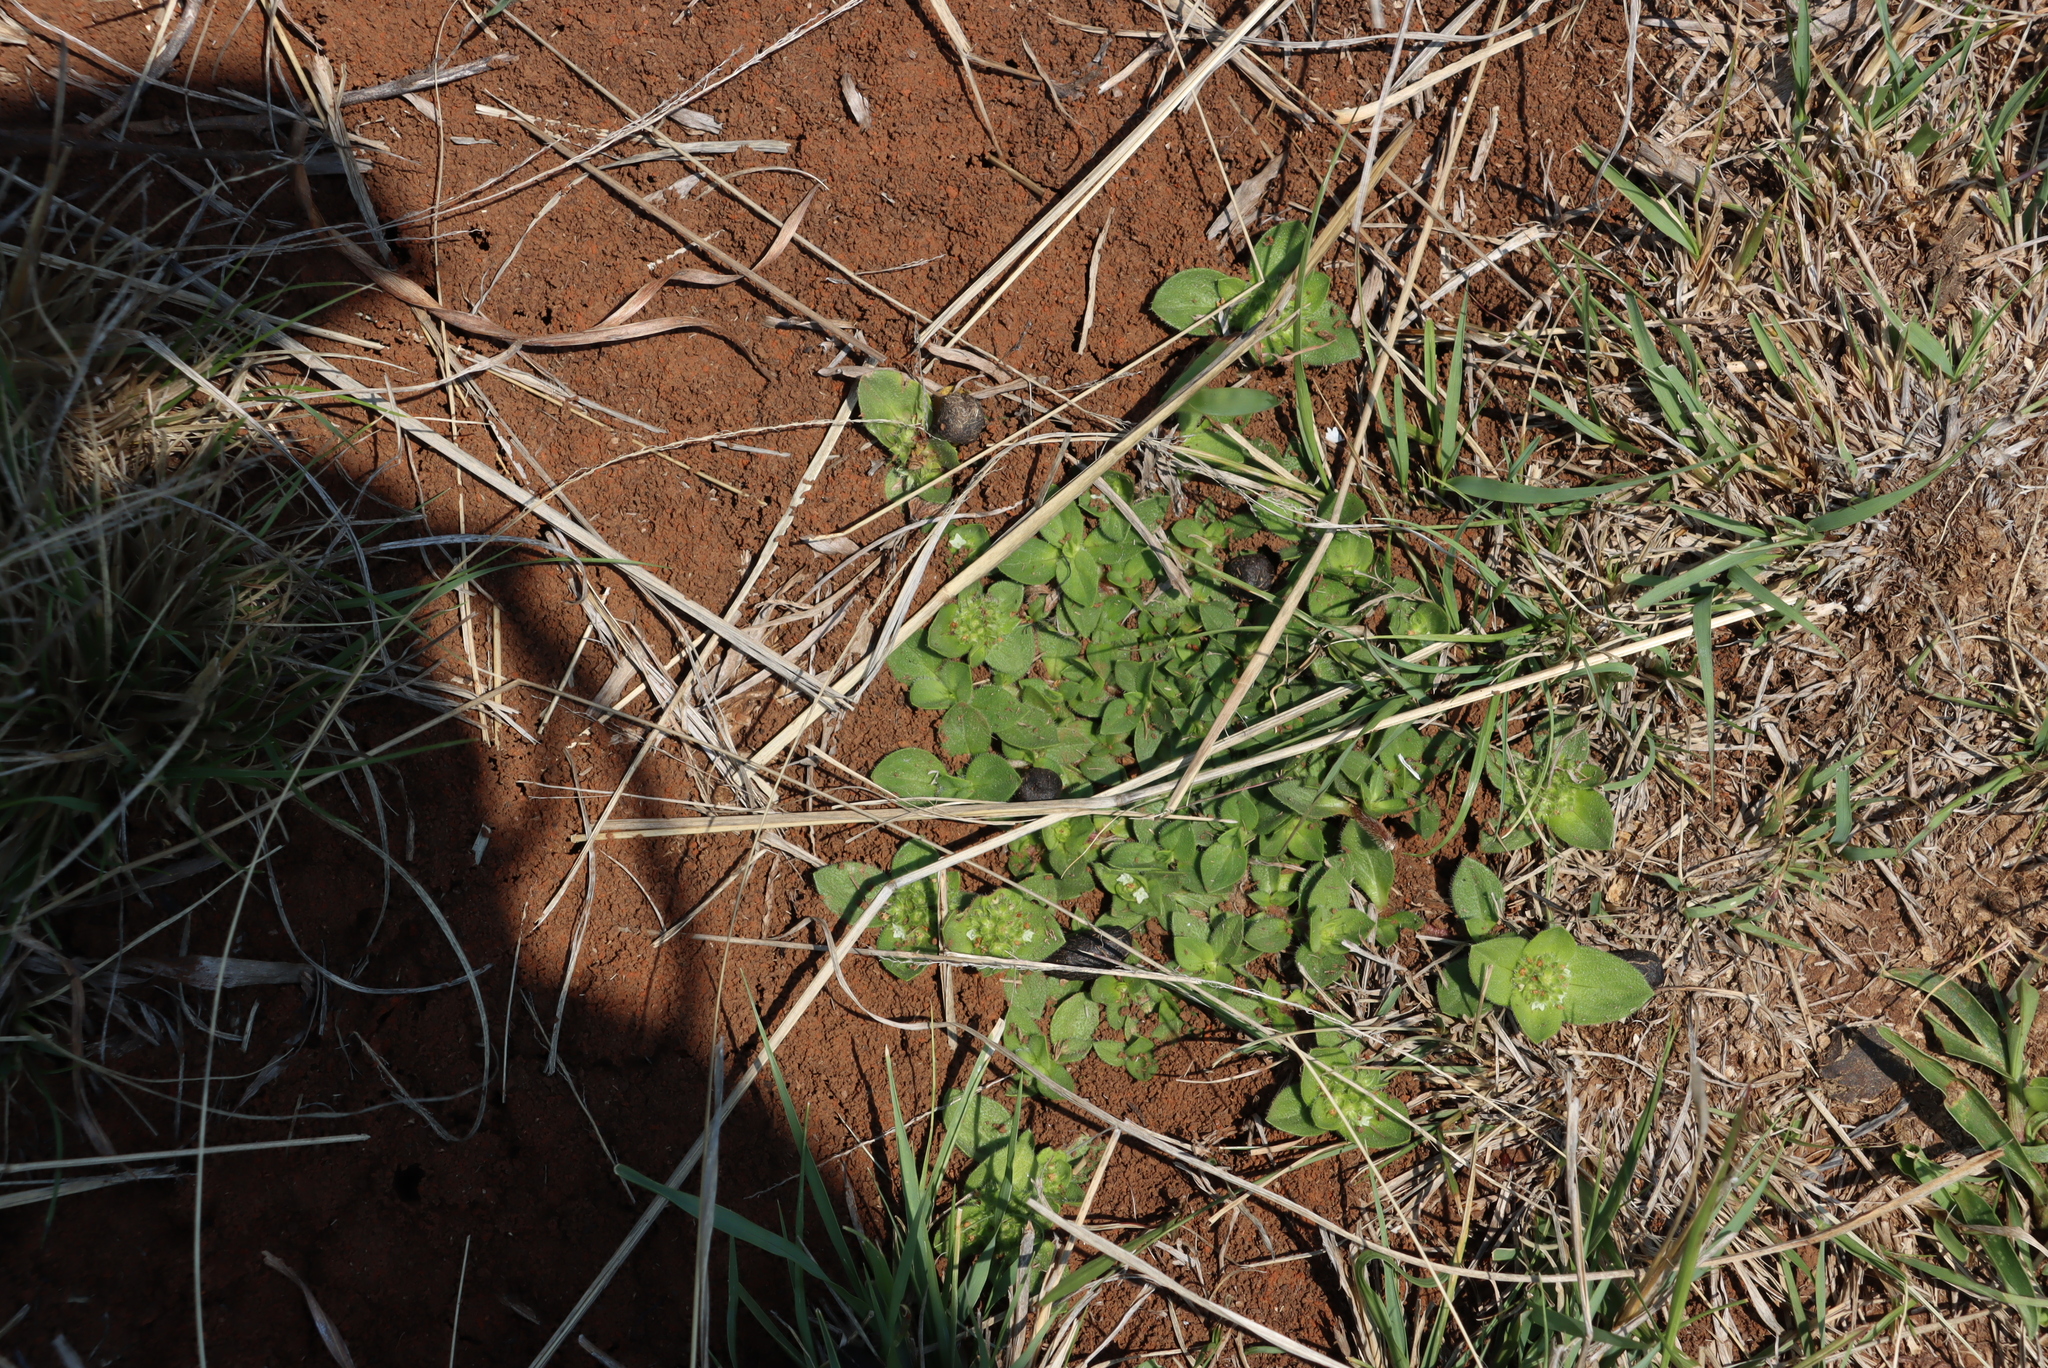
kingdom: Plantae
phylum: Tracheophyta
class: Magnoliopsida
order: Gentianales
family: Rubiaceae
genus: Richardia
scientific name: Richardia brasiliensis
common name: Tropical mexican clover
